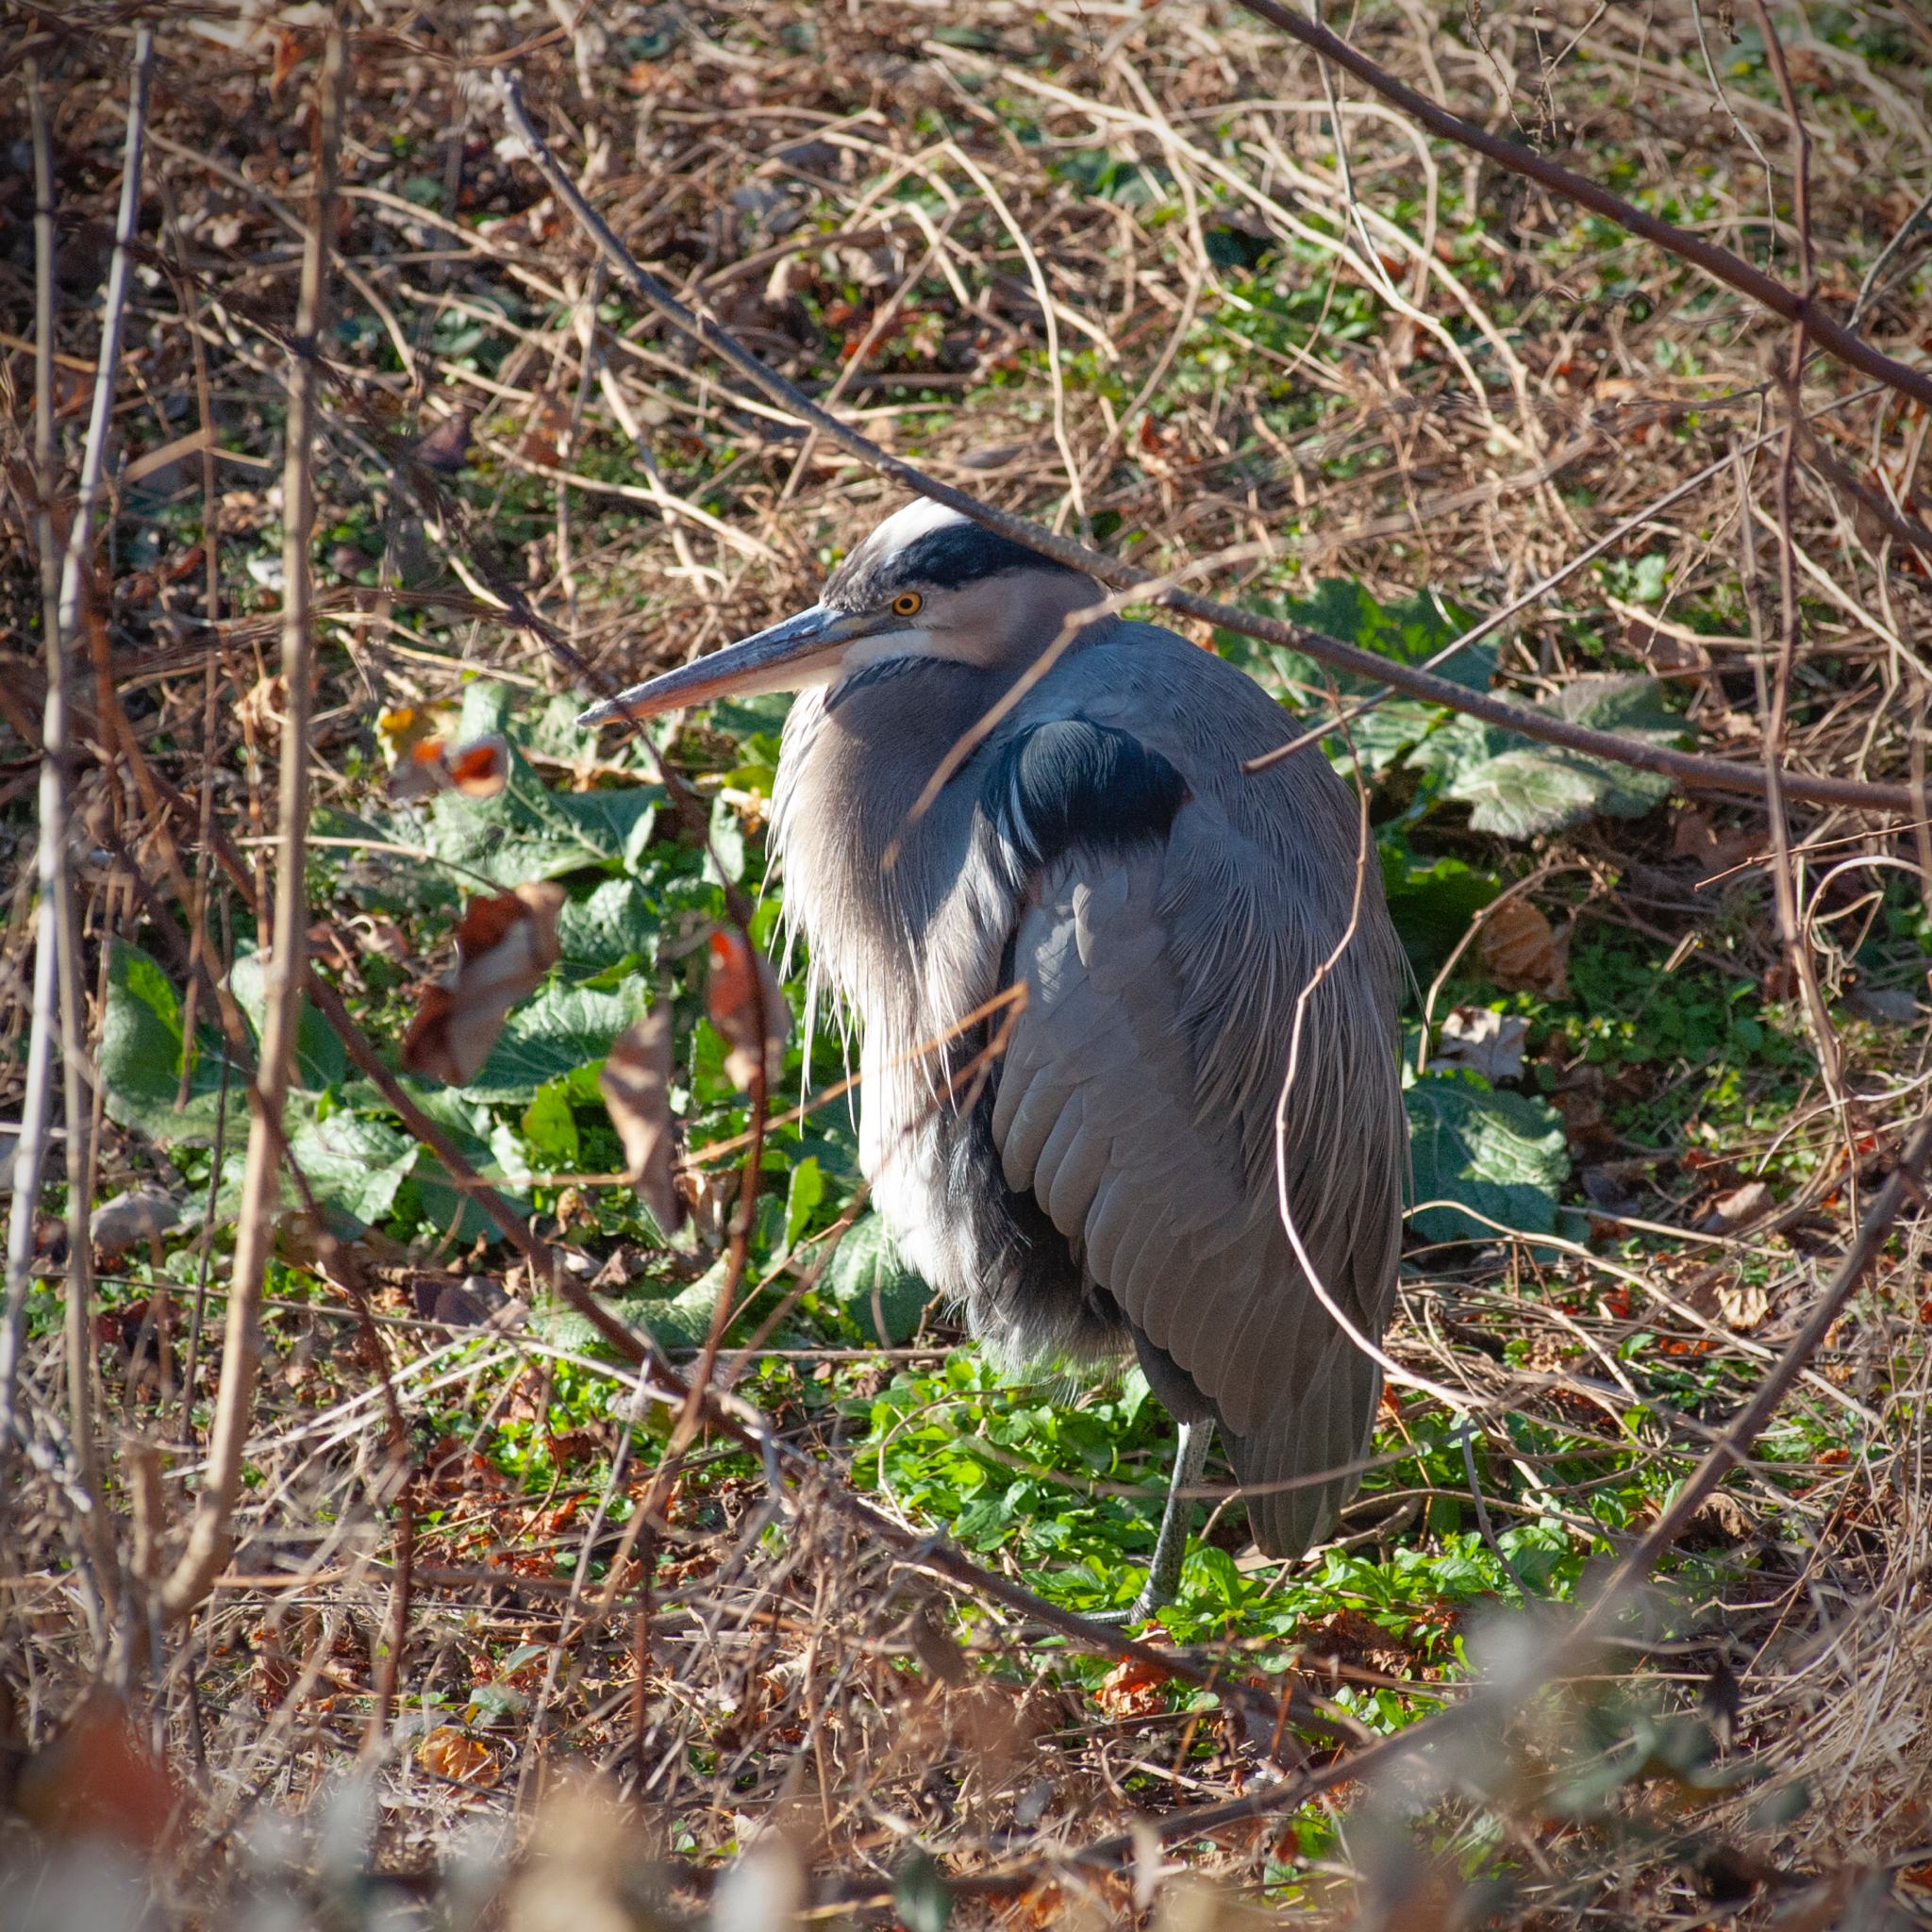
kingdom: Animalia
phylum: Chordata
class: Aves
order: Pelecaniformes
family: Ardeidae
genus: Ardea
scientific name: Ardea herodias
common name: Great blue heron
